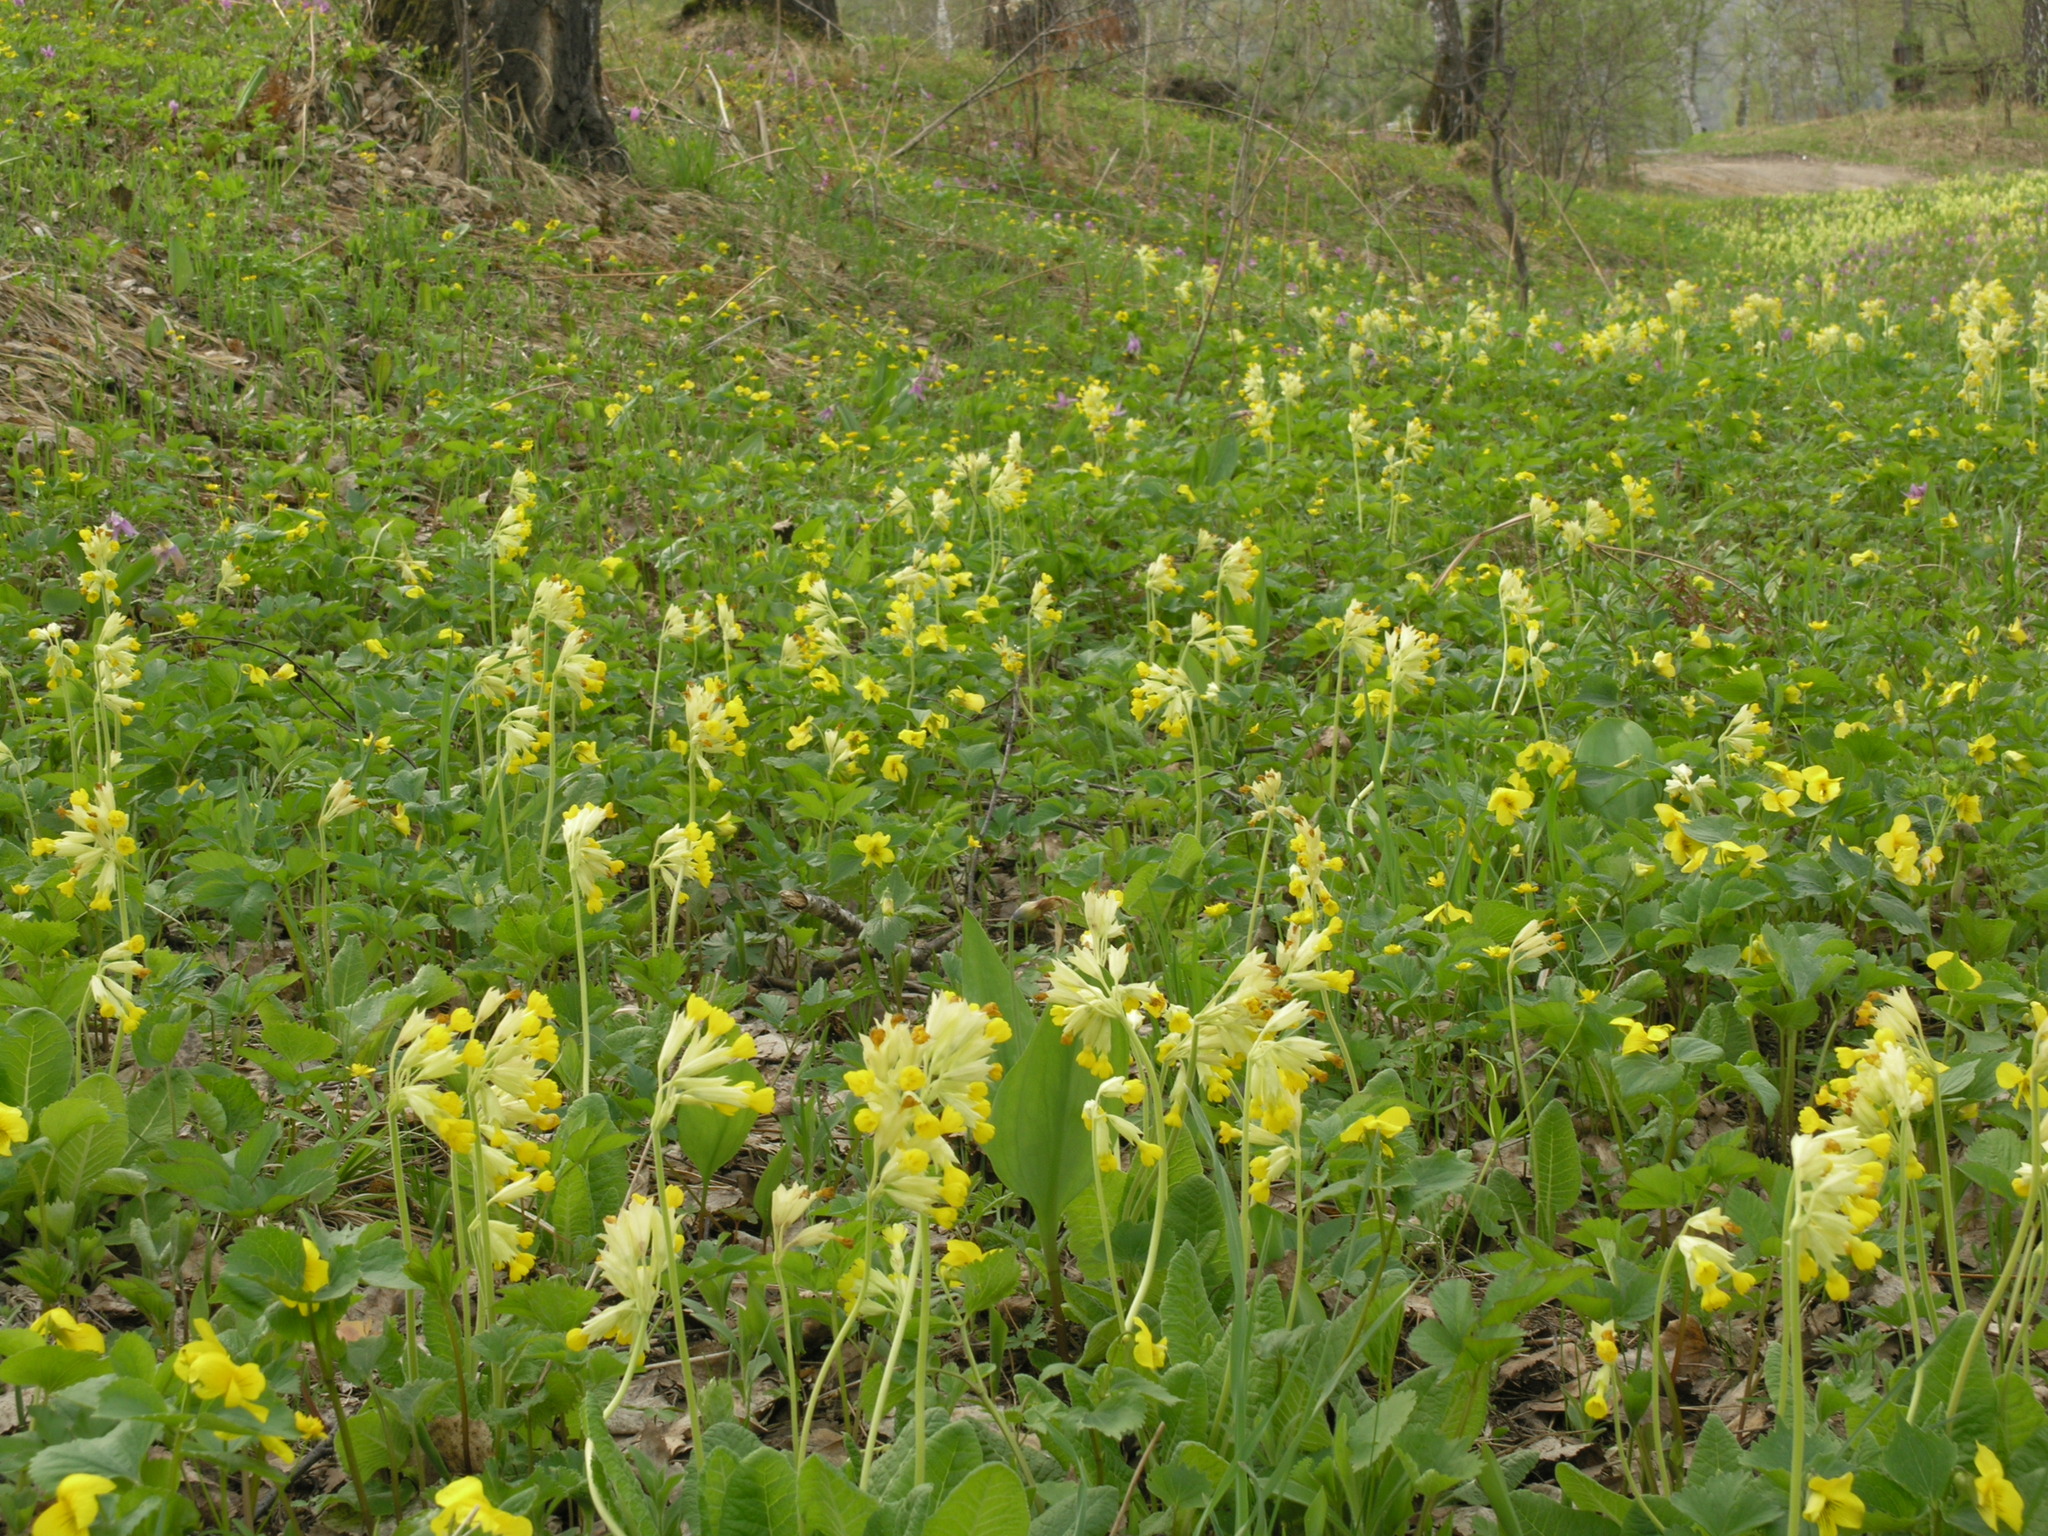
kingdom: Plantae
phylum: Tracheophyta
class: Magnoliopsida
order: Ranunculales
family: Papaveraceae
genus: Corydalis
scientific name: Corydalis bracteata
